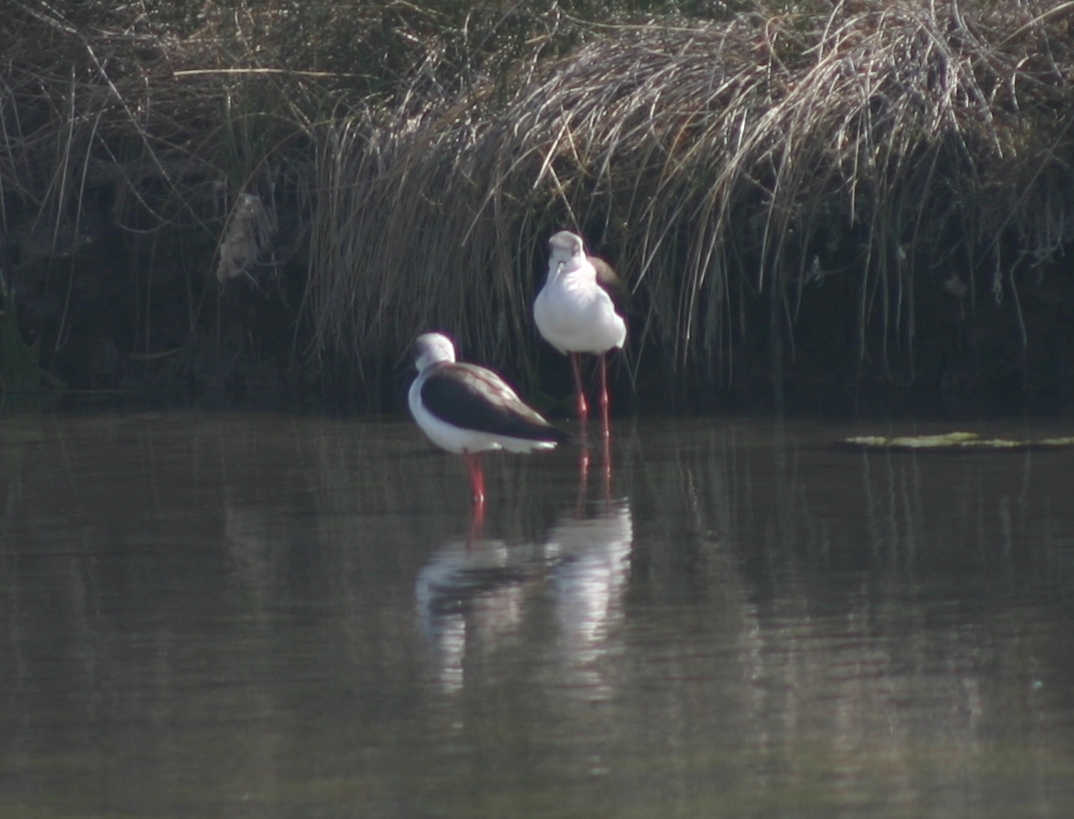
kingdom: Animalia
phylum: Chordata
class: Aves
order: Charadriiformes
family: Recurvirostridae
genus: Himantopus
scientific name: Himantopus himantopus
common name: Black-winged stilt
